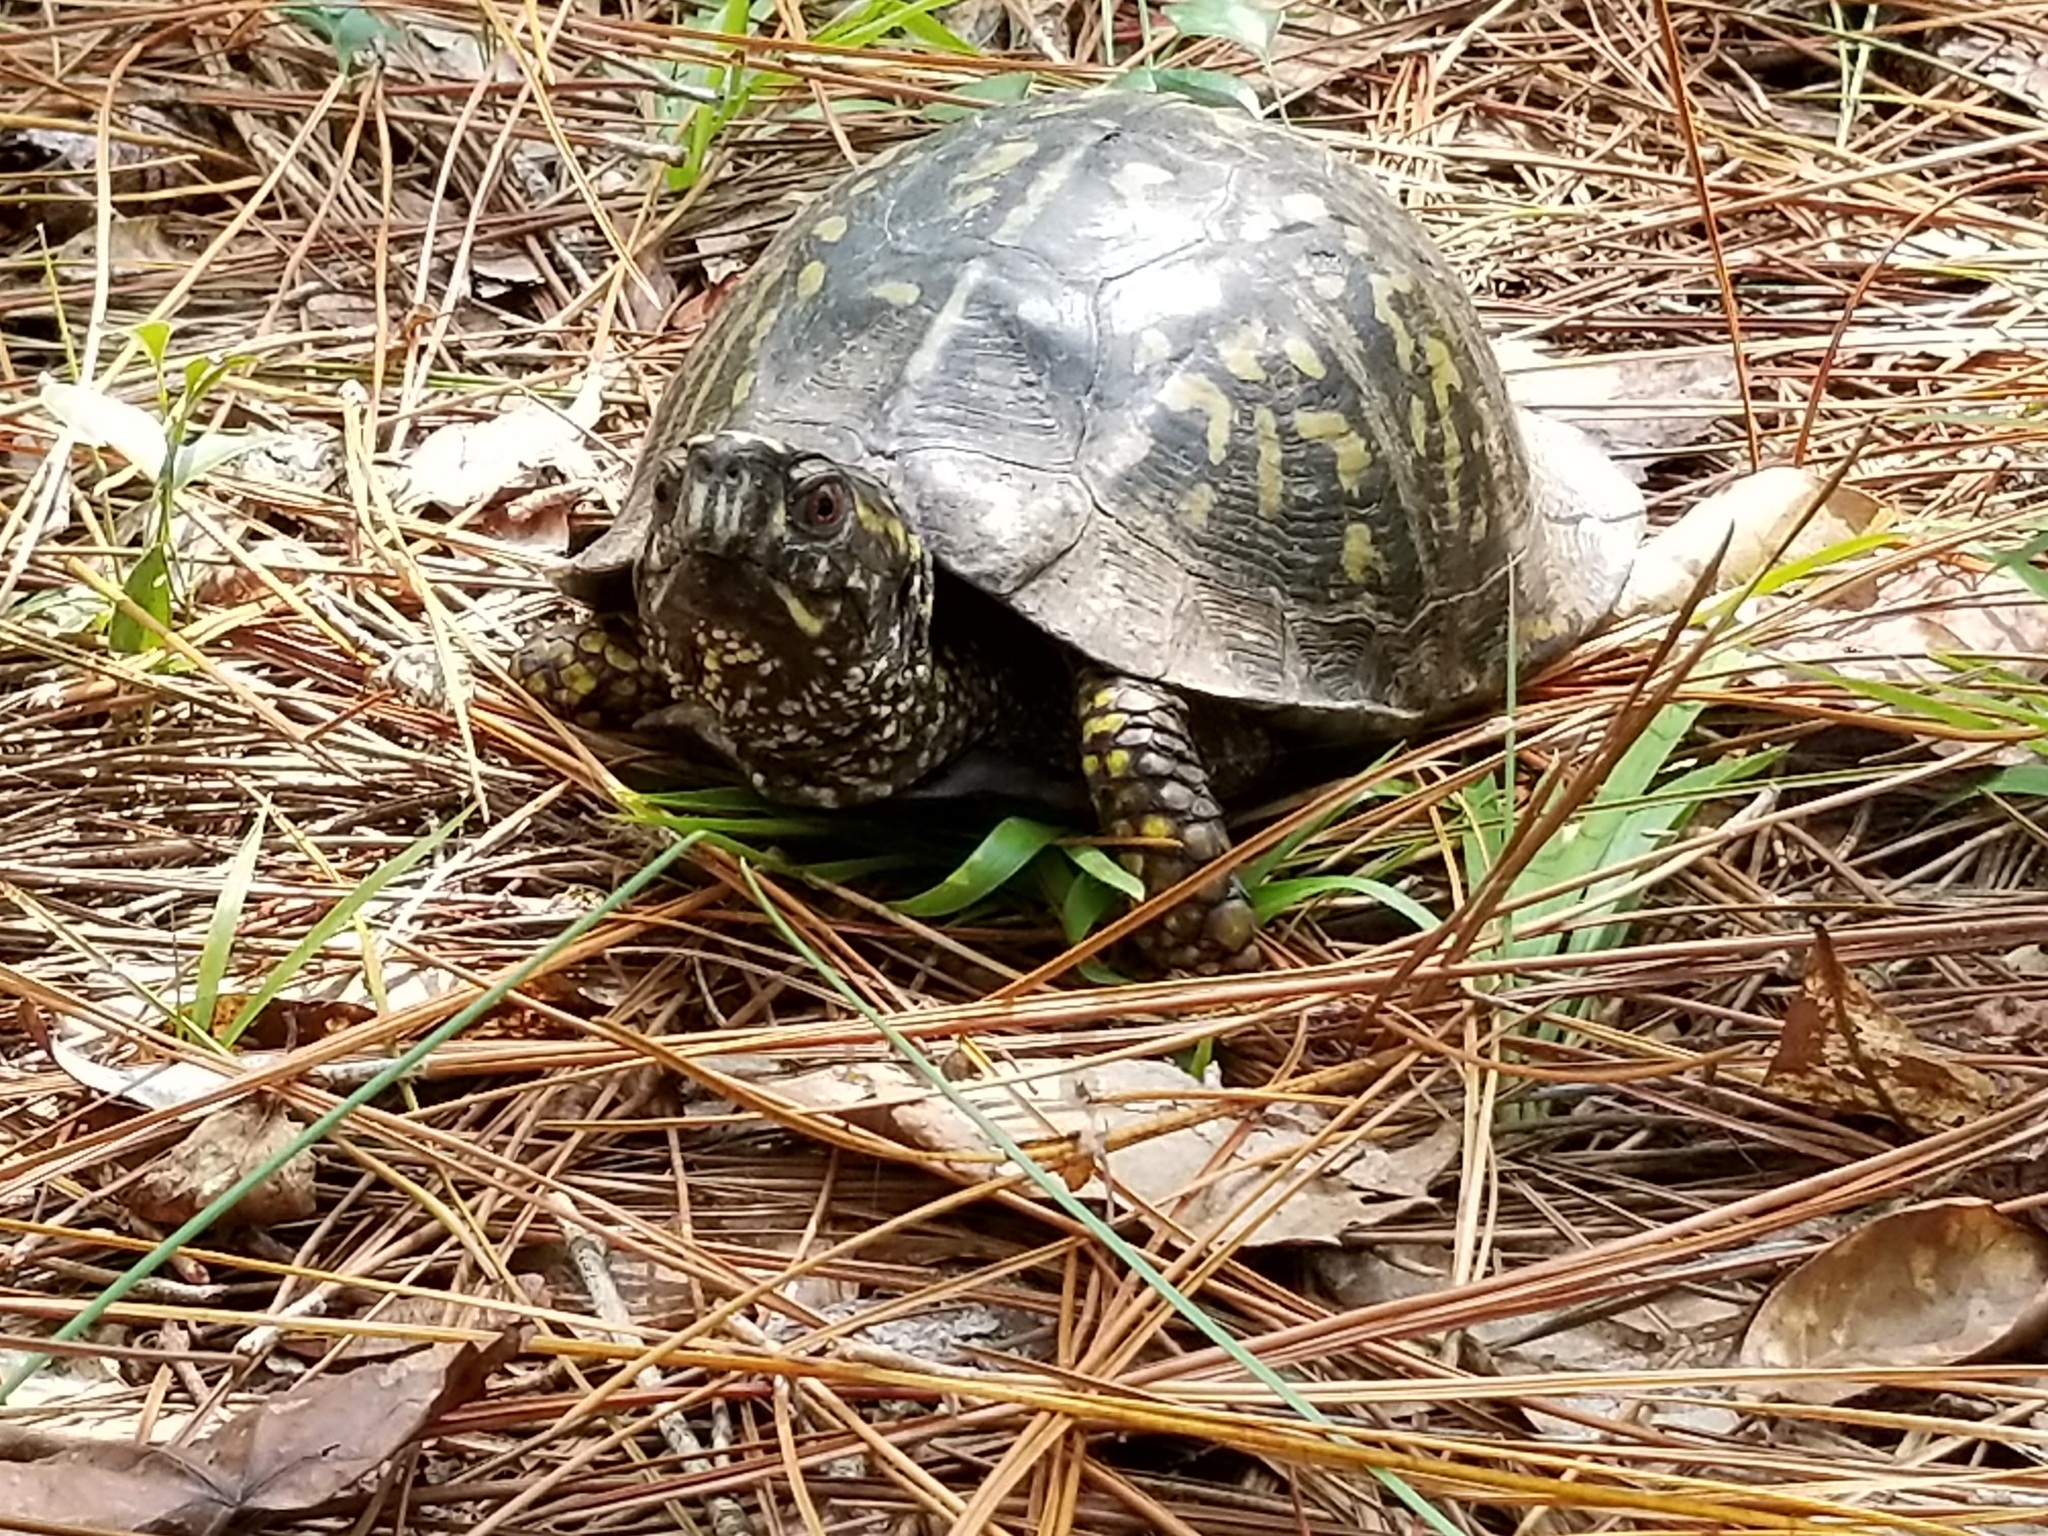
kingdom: Animalia
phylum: Chordata
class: Testudines
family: Emydidae
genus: Terrapene
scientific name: Terrapene carolina
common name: Common box turtle
